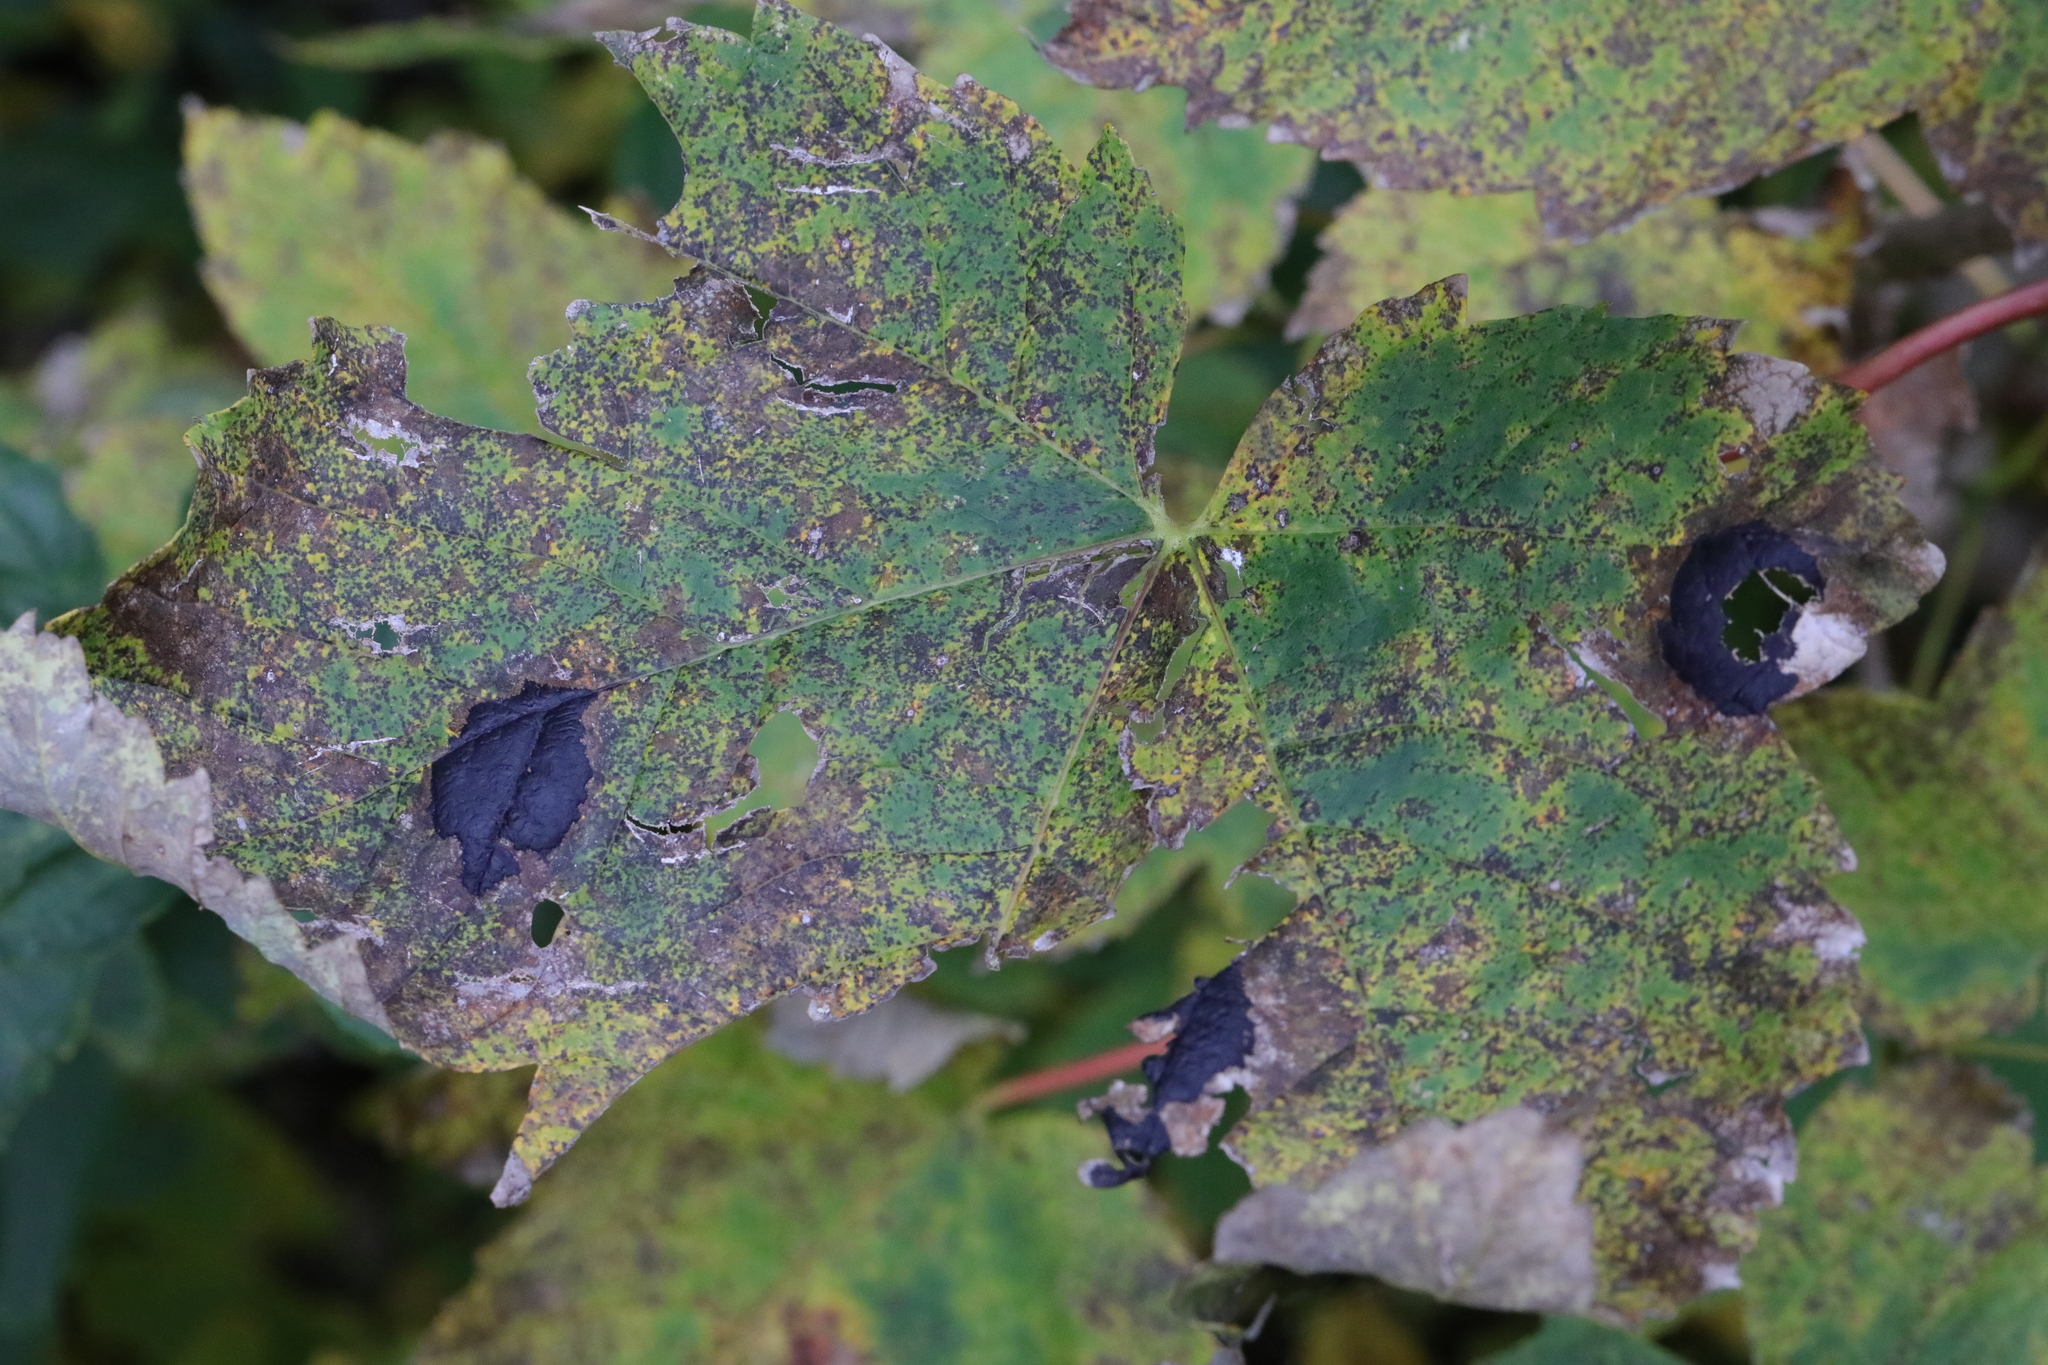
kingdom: Fungi
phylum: Ascomycota
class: Leotiomycetes
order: Rhytismatales
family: Rhytismataceae
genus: Rhytisma
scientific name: Rhytisma acerinum
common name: European tar spot
